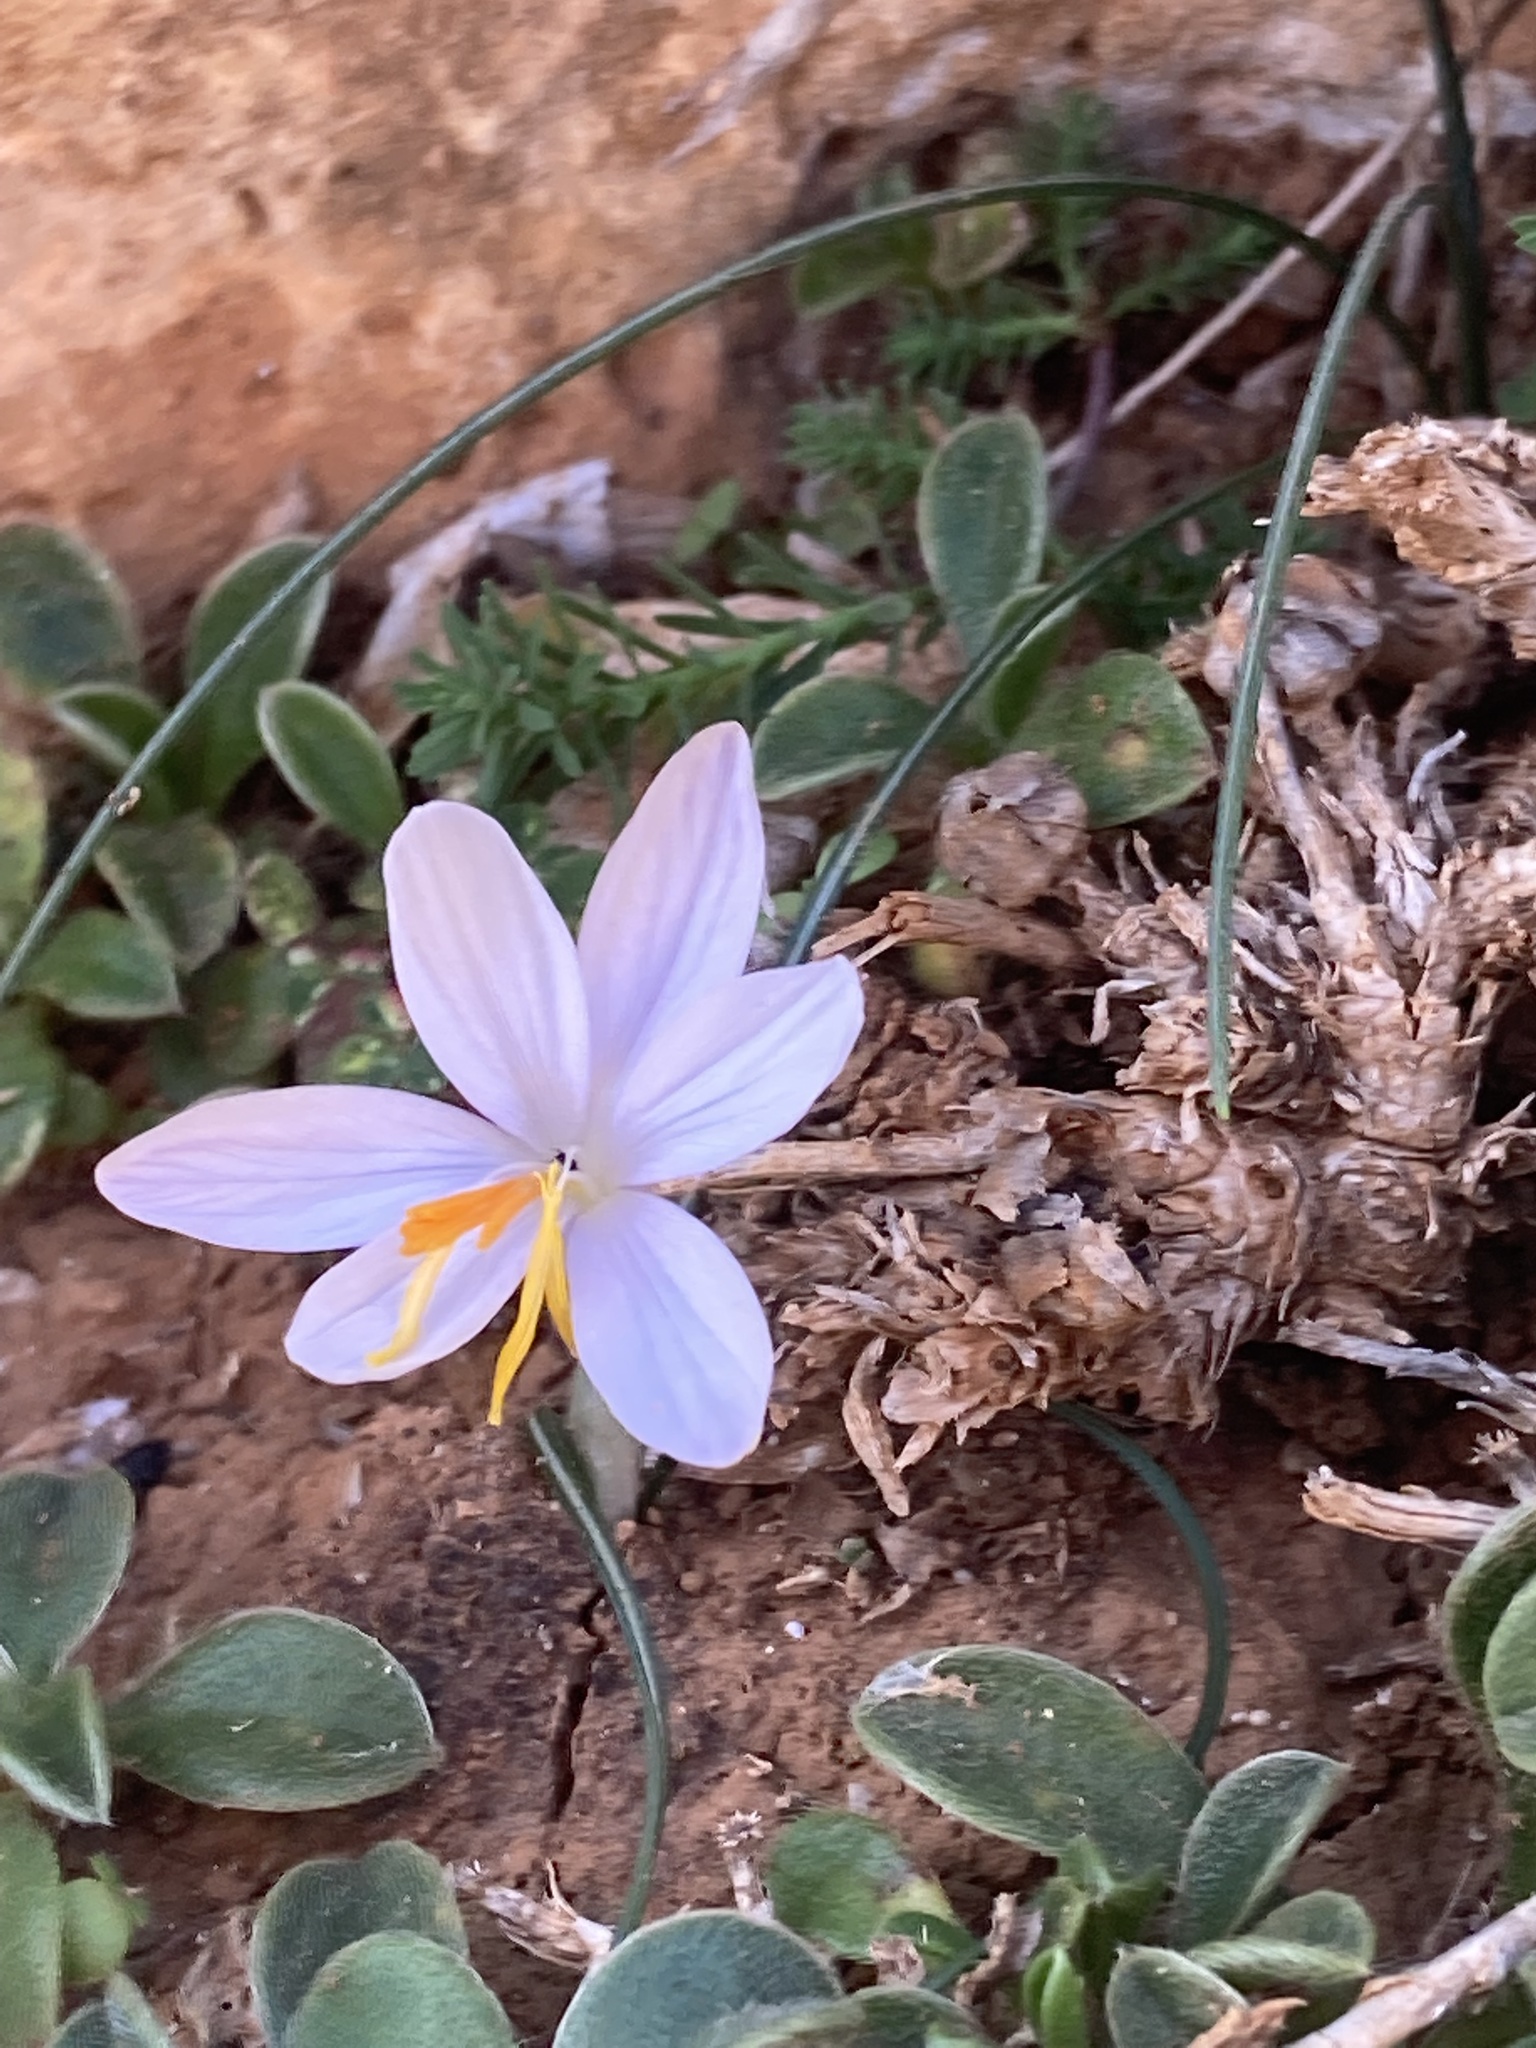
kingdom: Plantae
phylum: Tracheophyta
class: Liliopsida
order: Asparagales
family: Iridaceae
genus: Crocus
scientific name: Crocus cambessedesii
